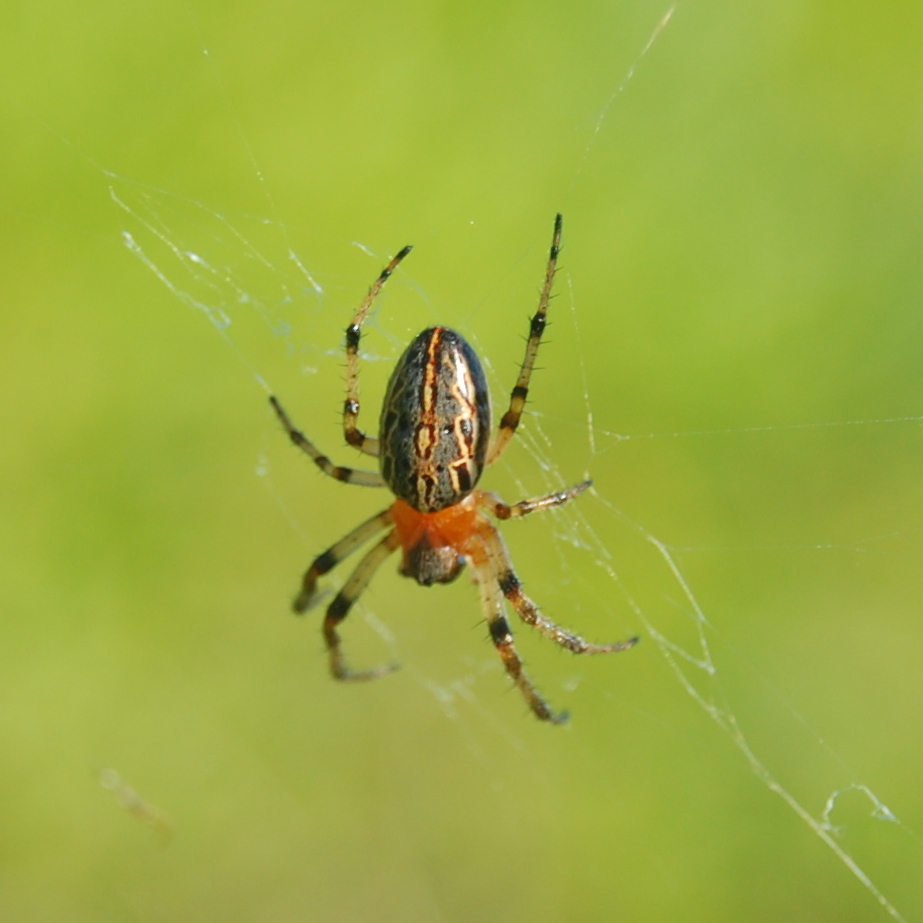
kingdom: Animalia
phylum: Arthropoda
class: Arachnida
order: Araneae
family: Araneidae
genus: Alpaida
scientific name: Alpaida veniliae
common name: Orb weavers
